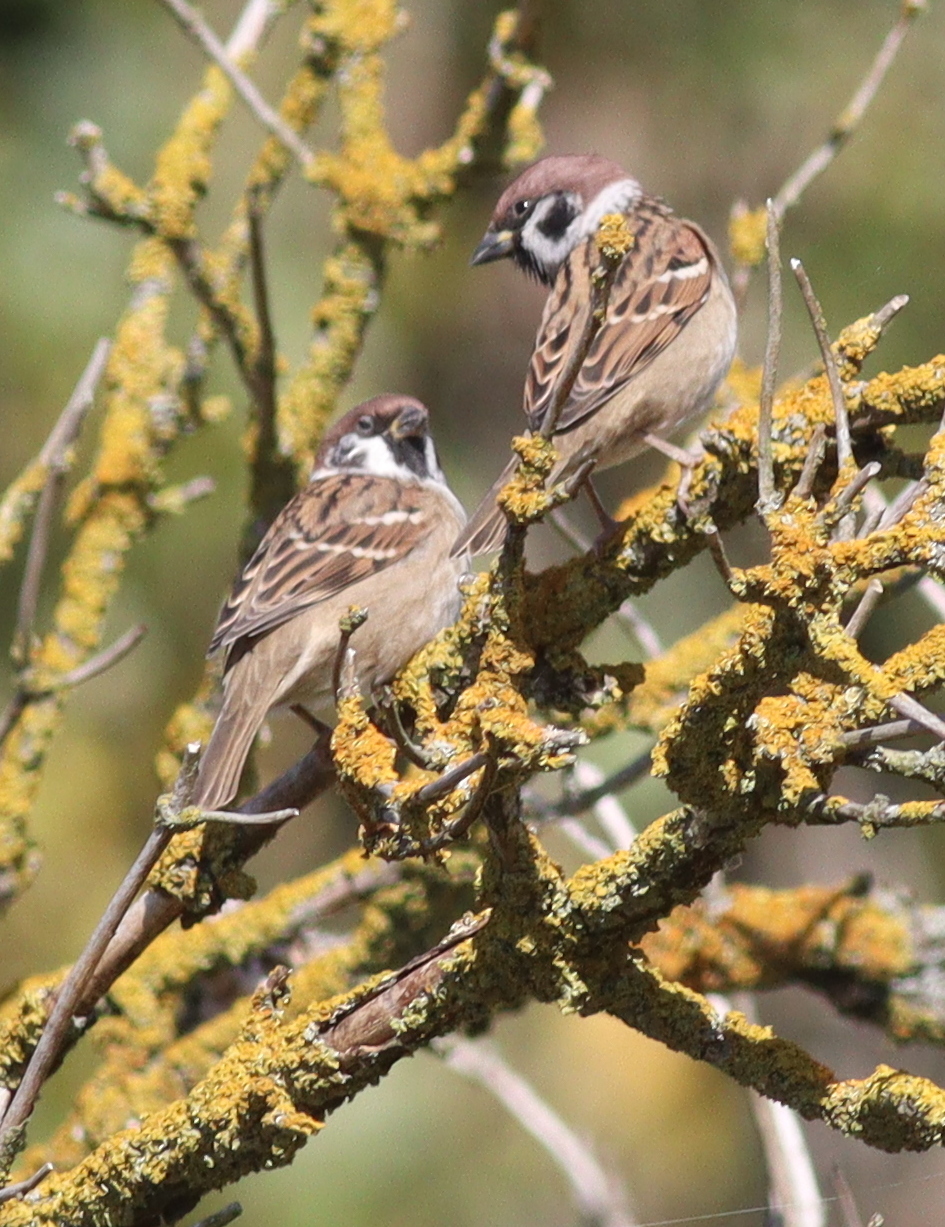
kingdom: Animalia
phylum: Chordata
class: Aves
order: Passeriformes
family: Passeridae
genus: Passer
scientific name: Passer montanus
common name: Eurasian tree sparrow
